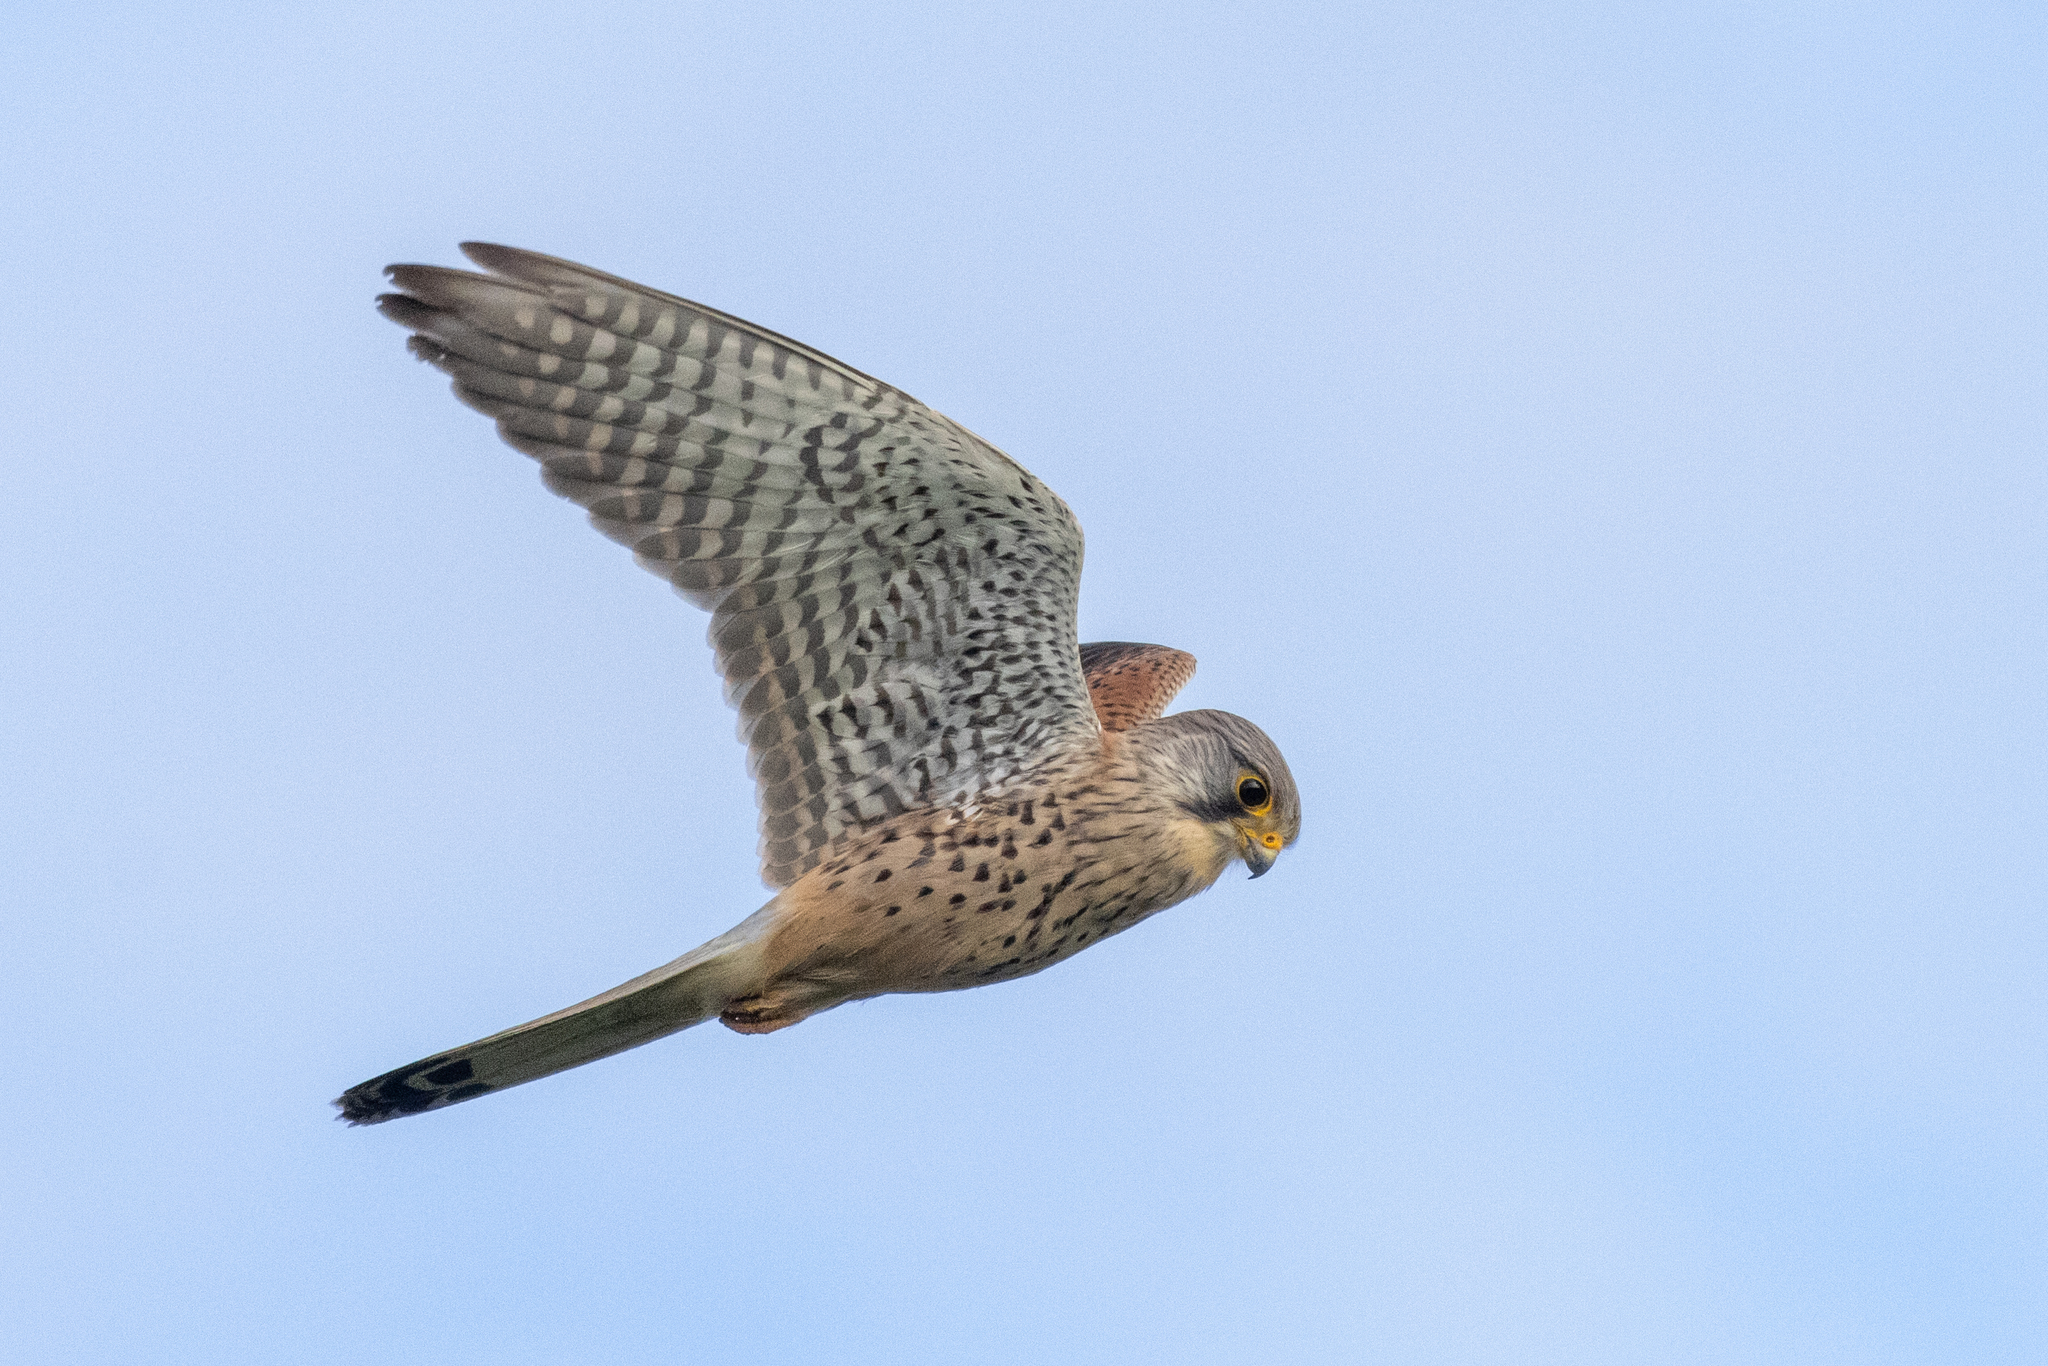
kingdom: Animalia
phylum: Chordata
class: Aves
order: Falconiformes
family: Falconidae
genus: Falco
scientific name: Falco tinnunculus
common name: Common kestrel
